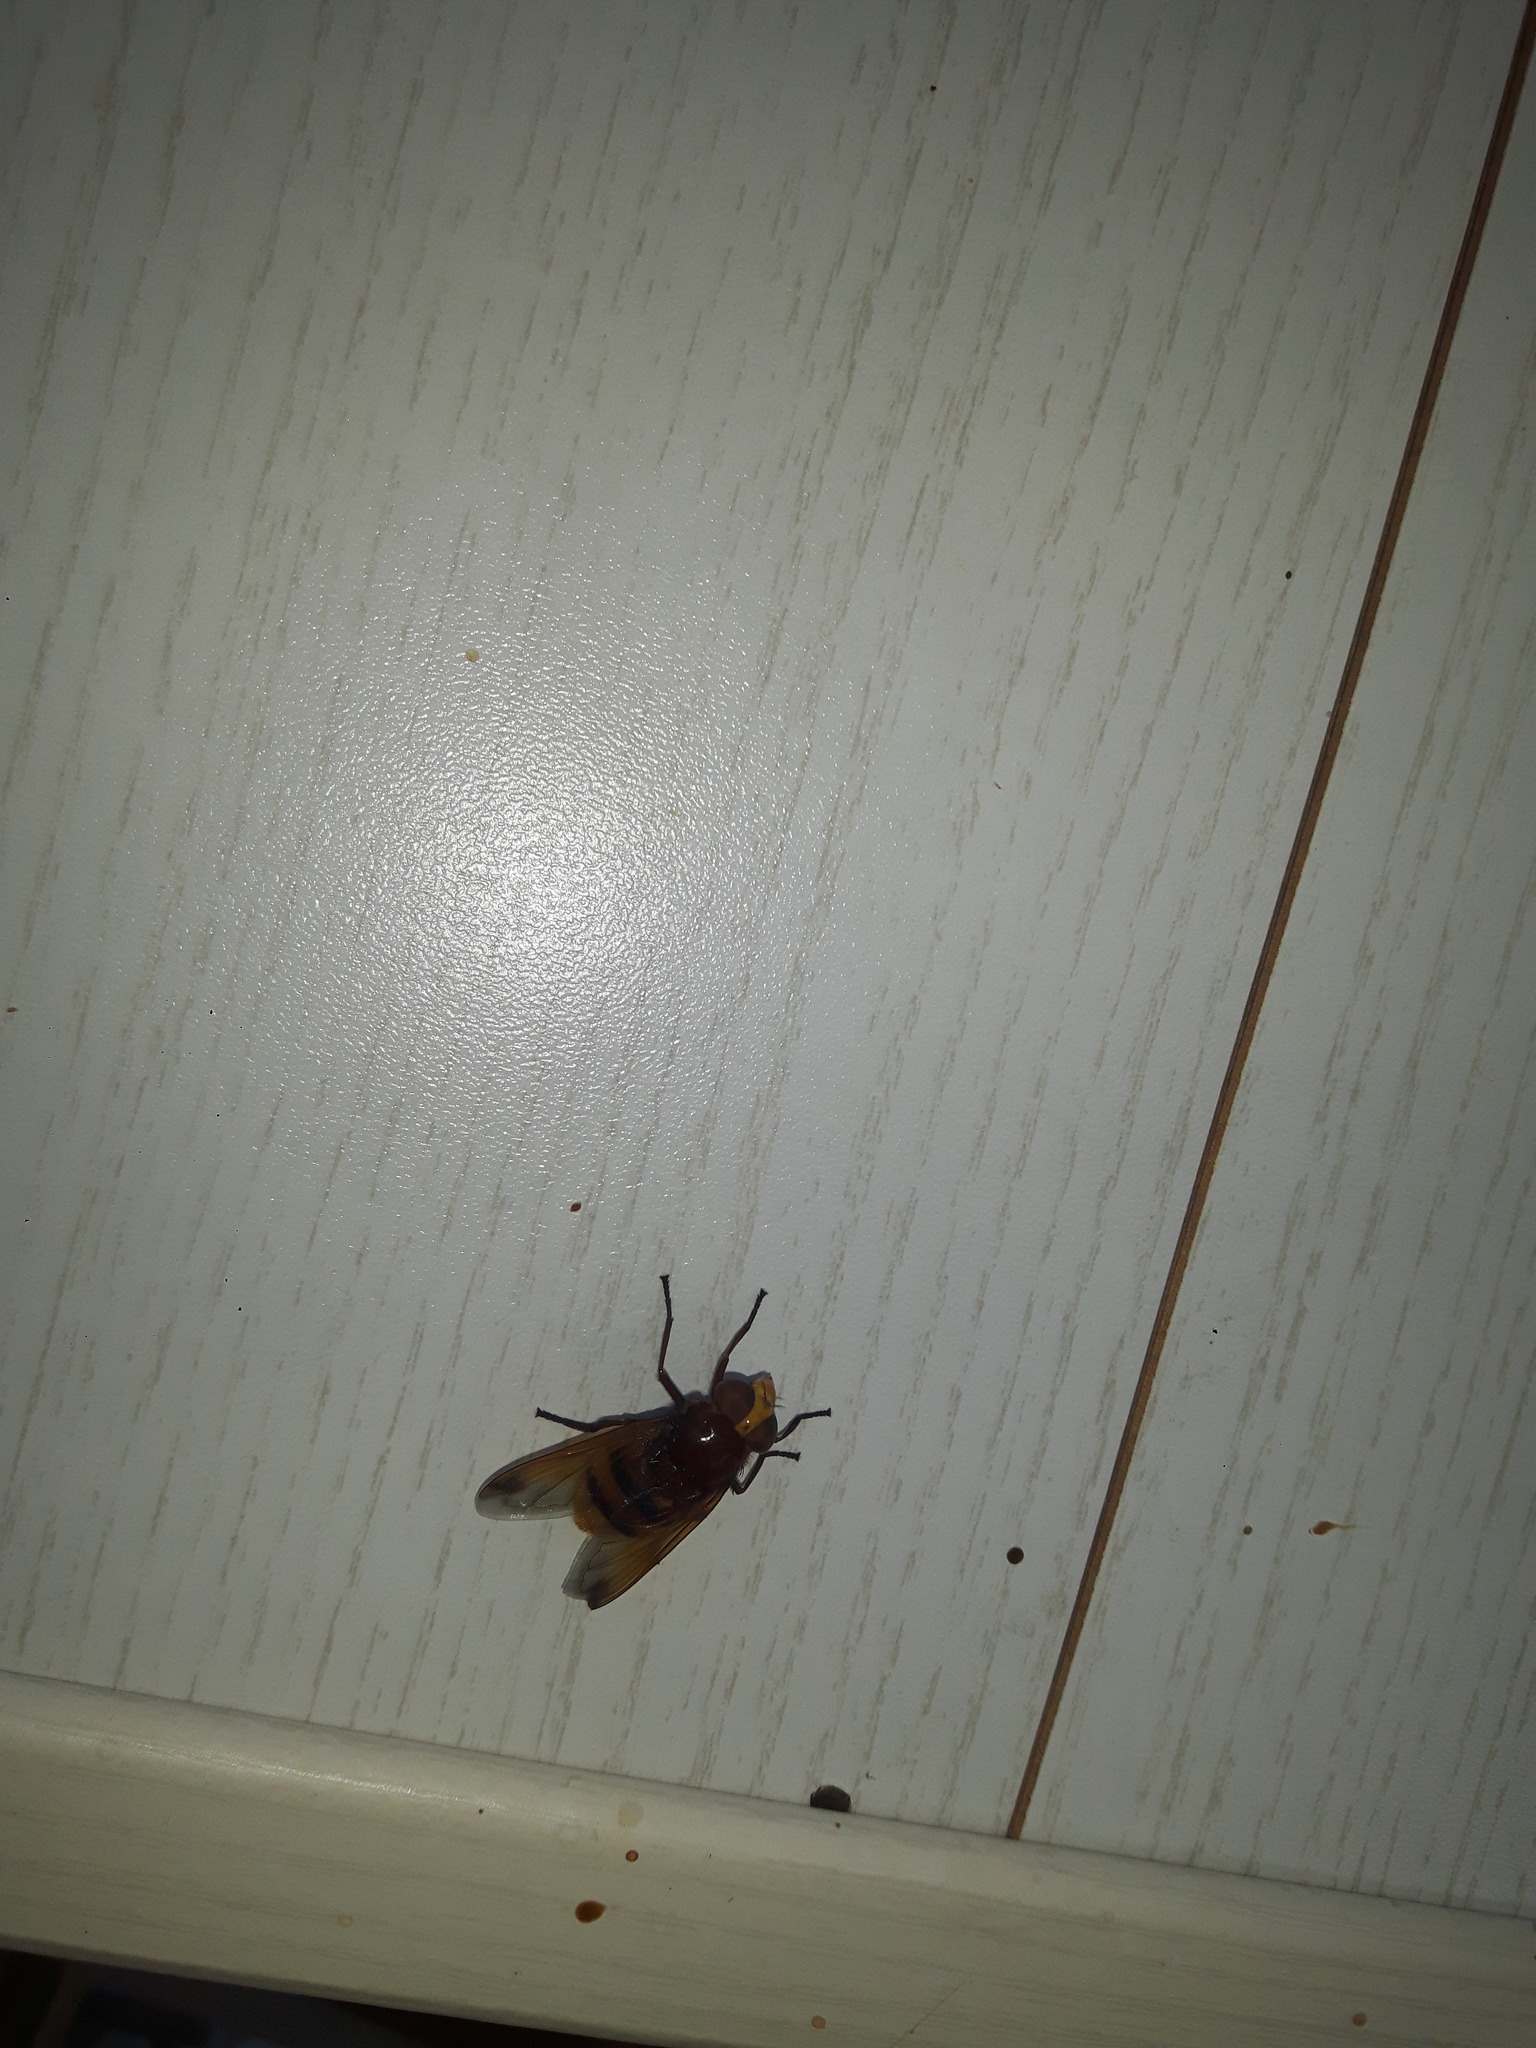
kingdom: Animalia
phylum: Arthropoda
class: Insecta
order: Diptera
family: Syrphidae
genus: Volucella
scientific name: Volucella zonaria
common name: Hornet hoverfly
